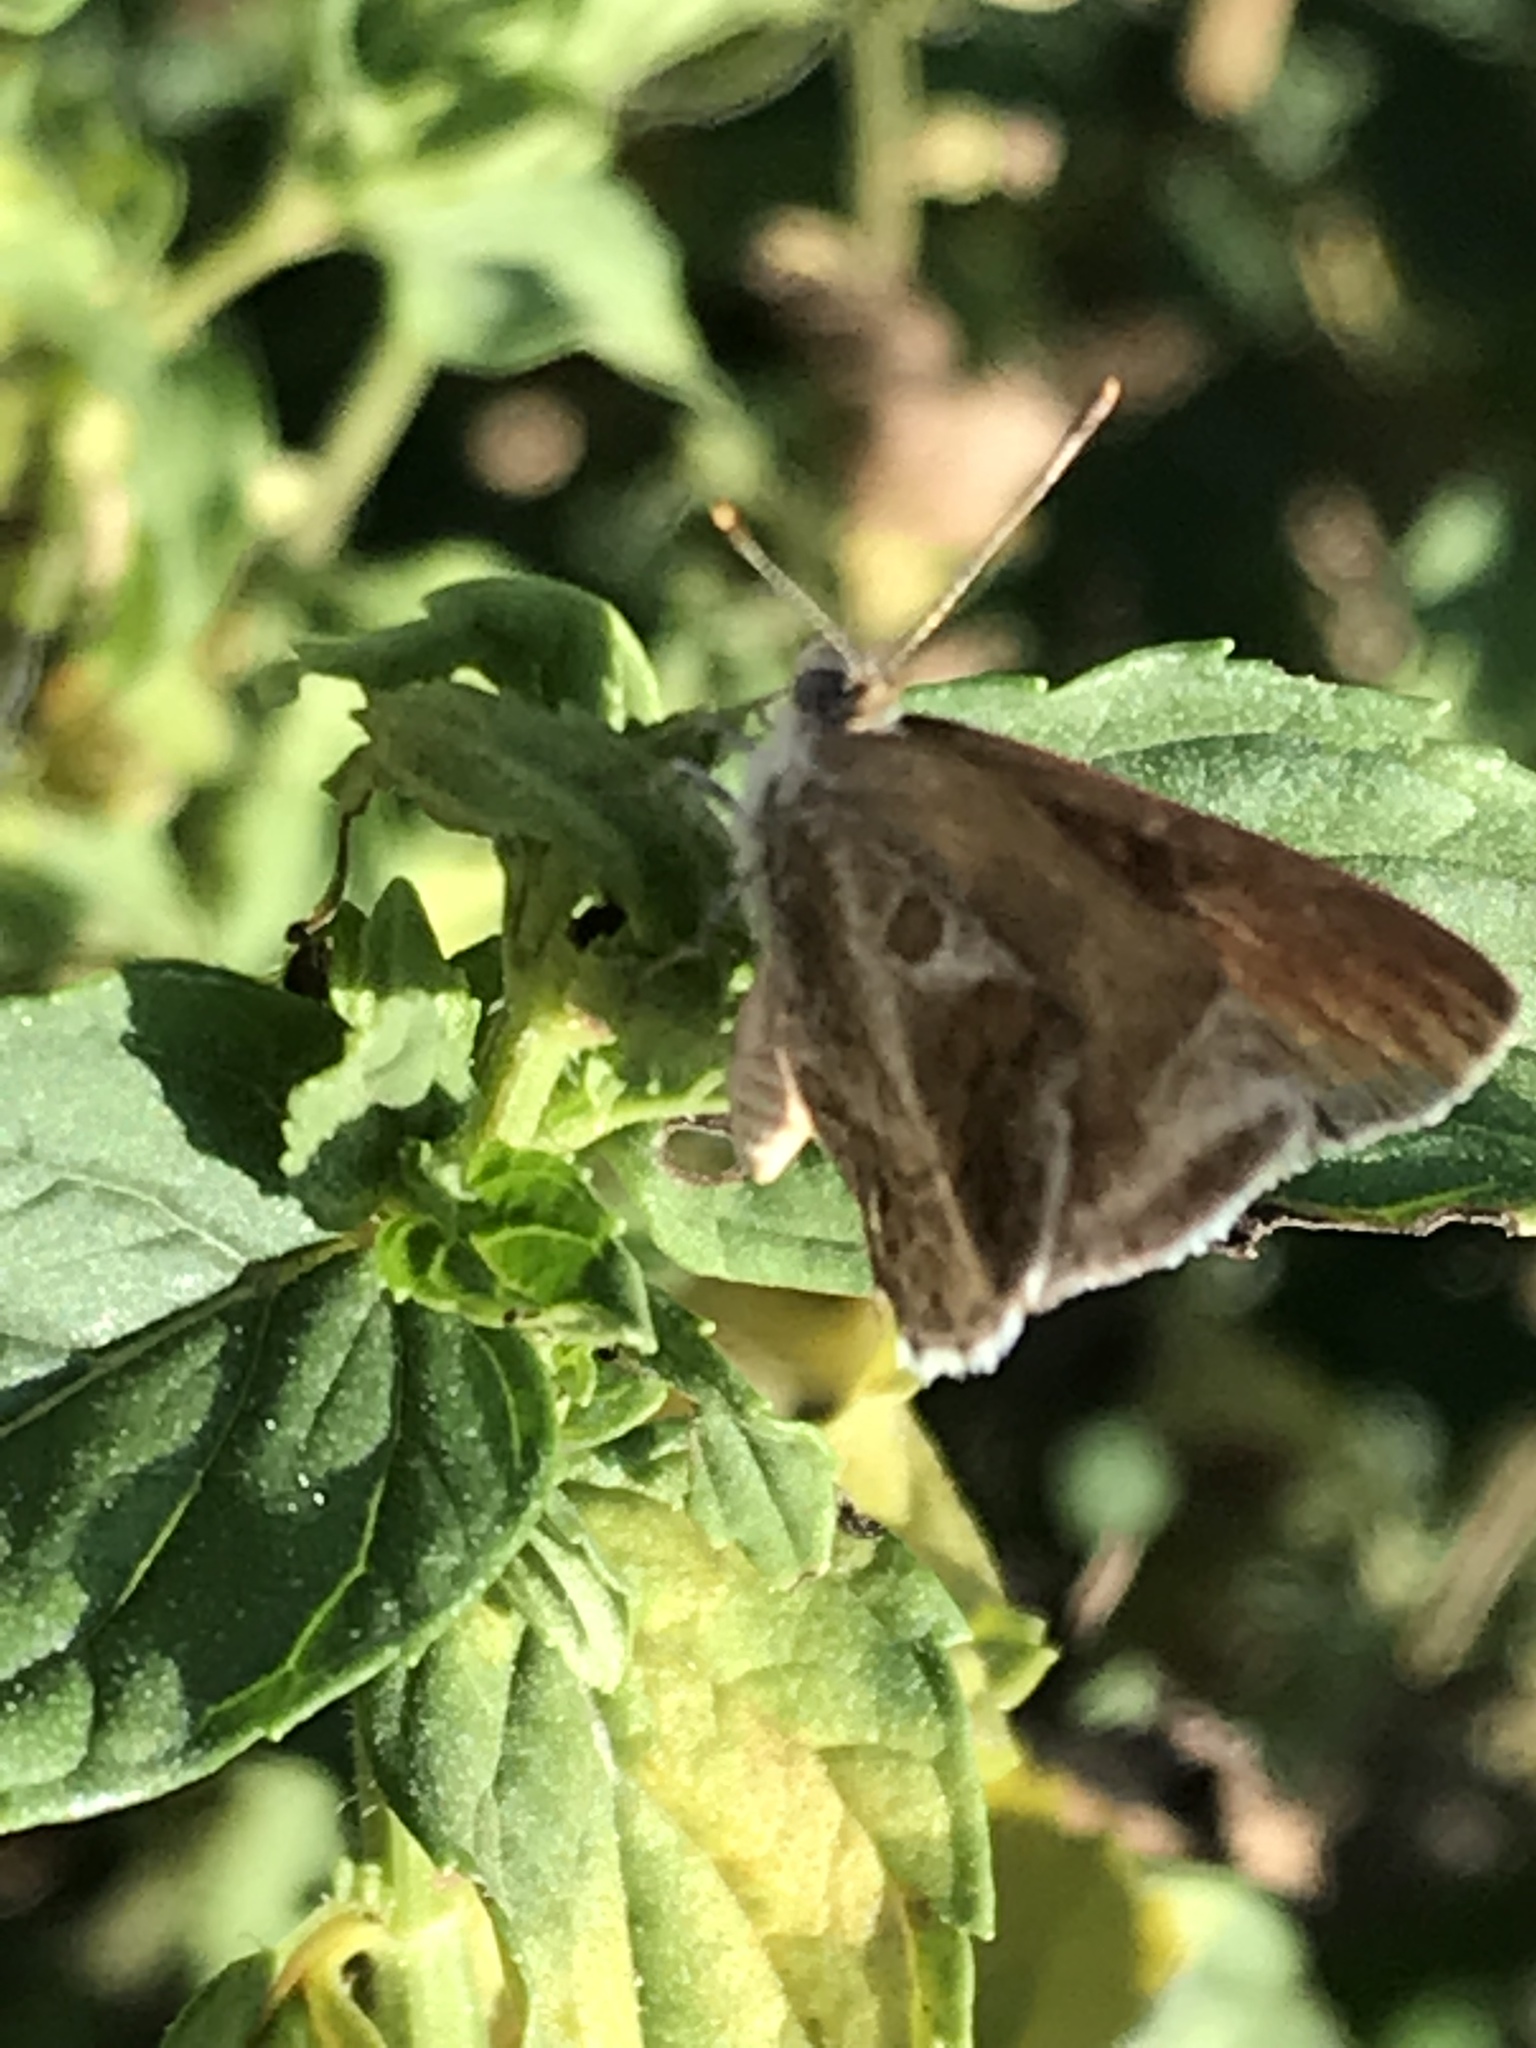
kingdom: Animalia
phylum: Arthropoda
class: Insecta
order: Lepidoptera
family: Lycaenidae
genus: Strymon
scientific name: Strymon bazochii
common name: Lantana scrub-hairstreak
